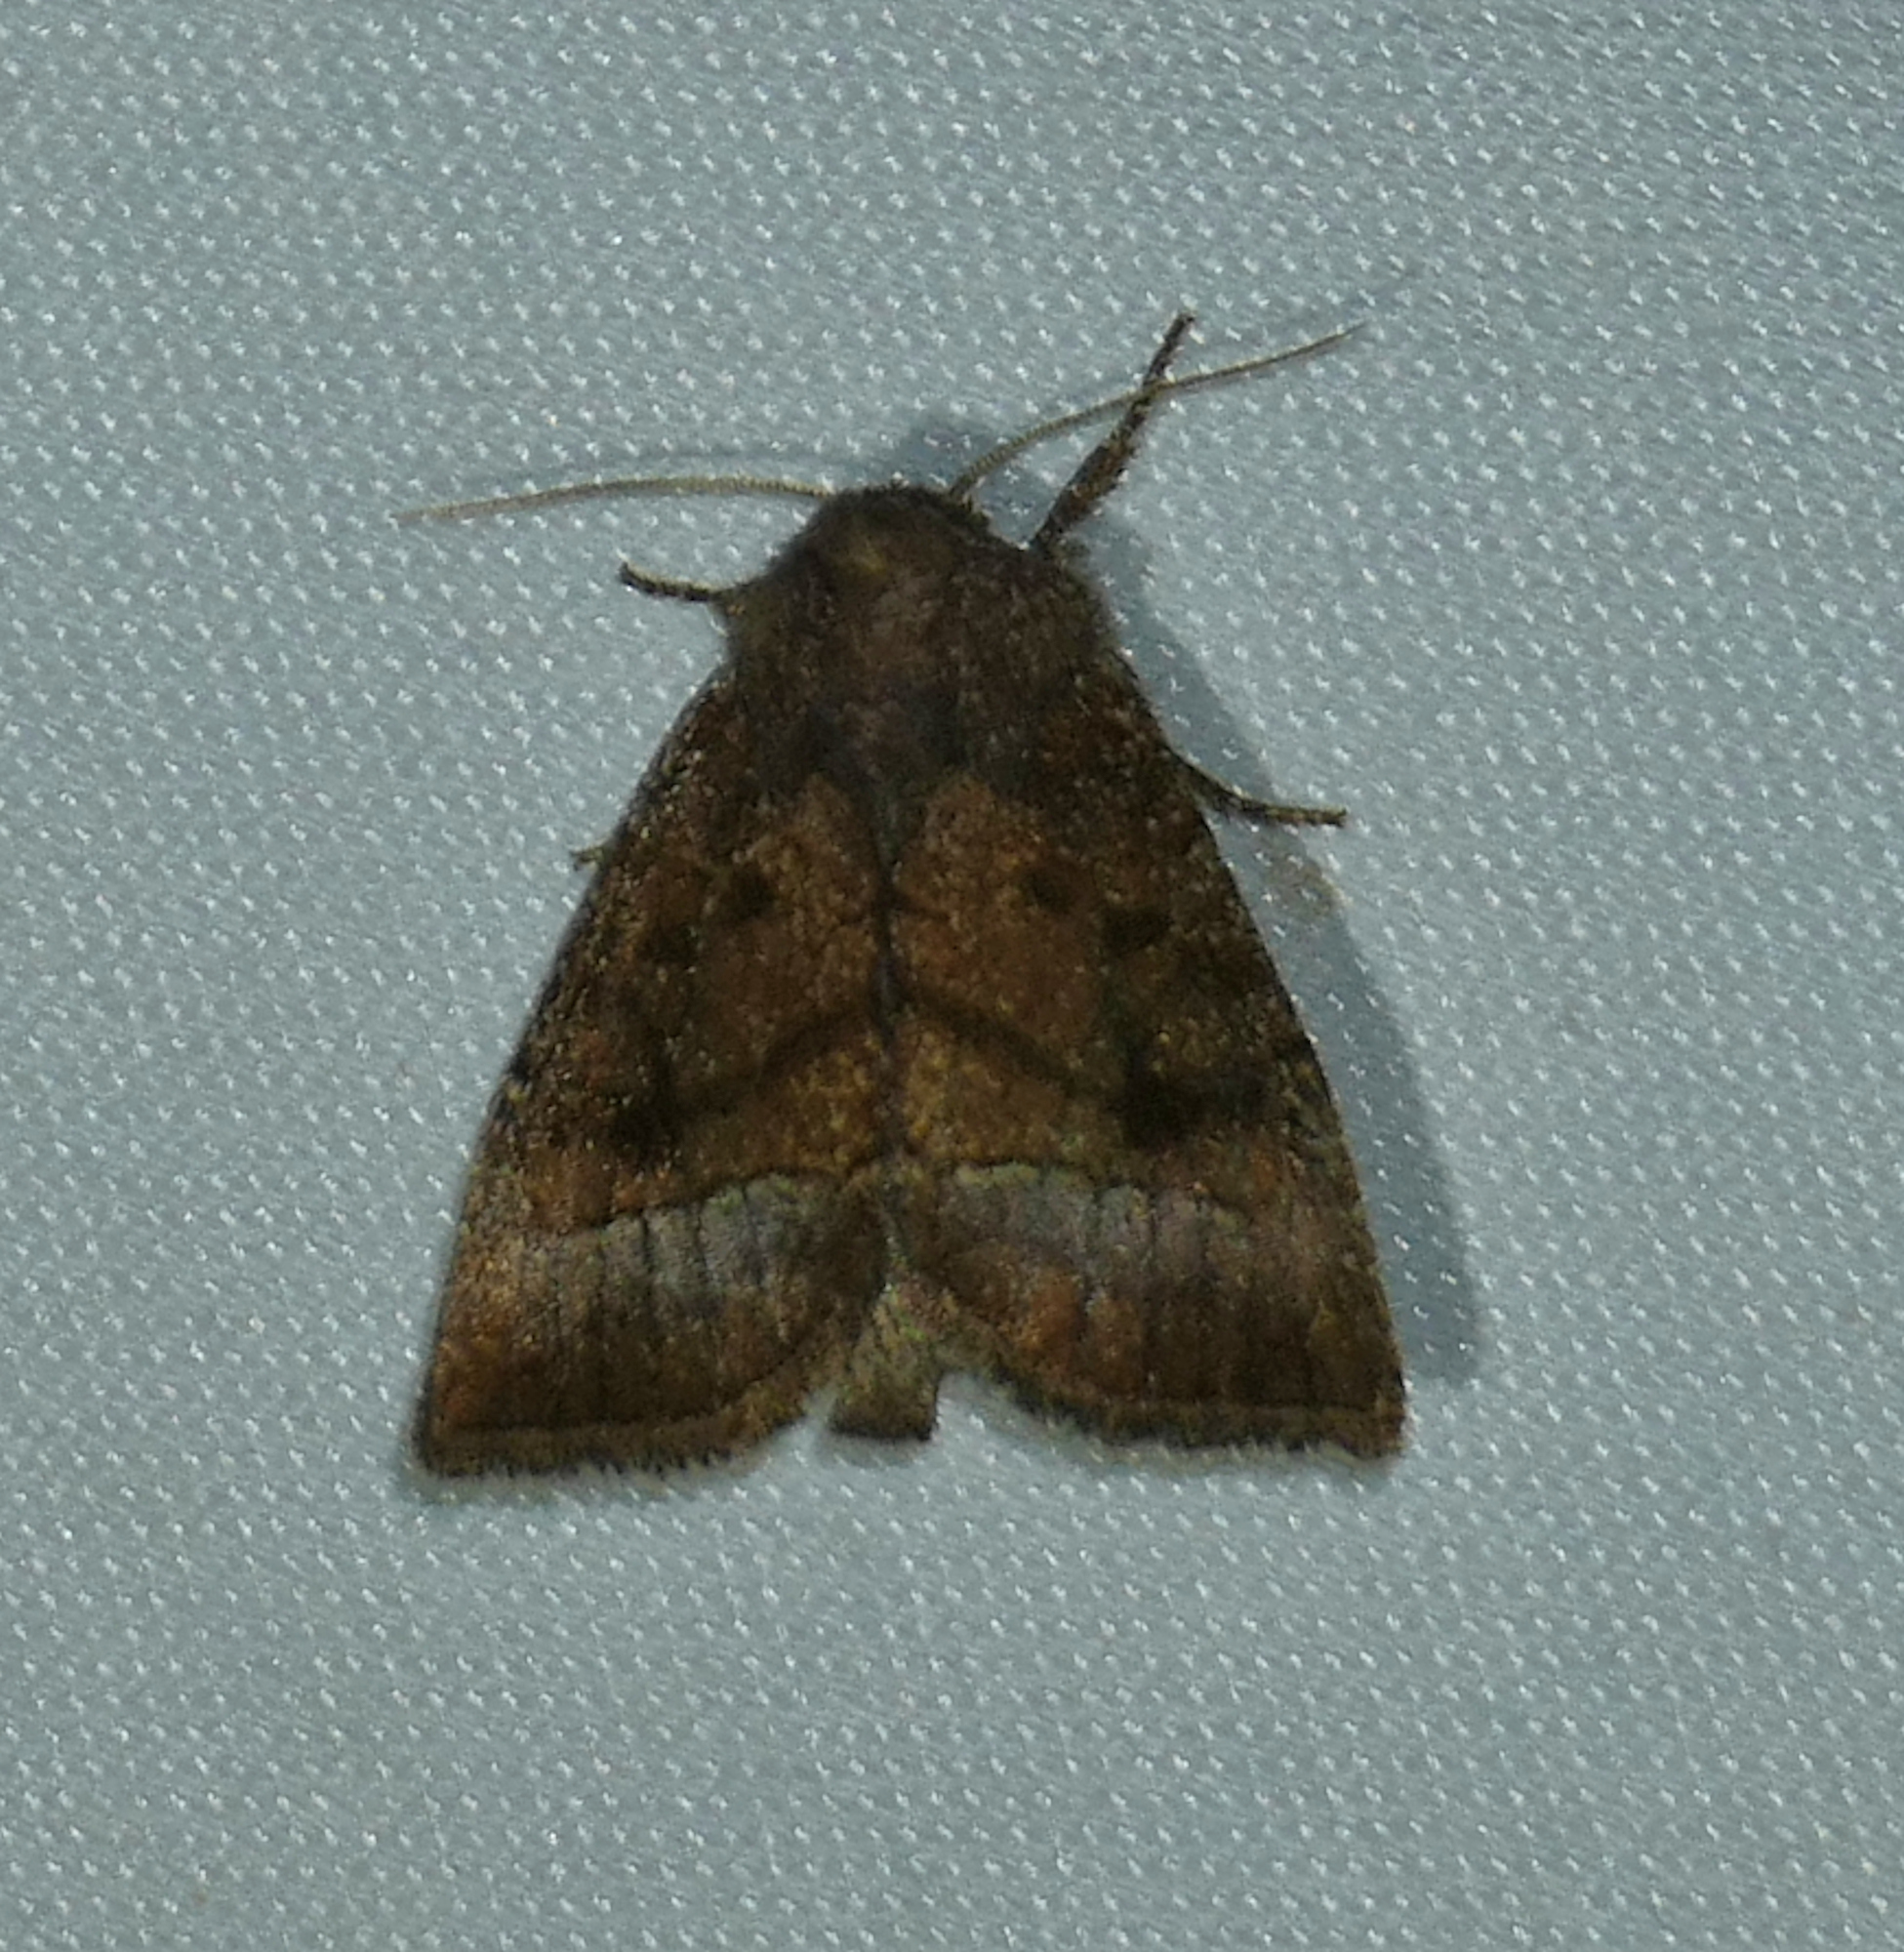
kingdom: Animalia
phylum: Arthropoda
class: Insecta
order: Lepidoptera
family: Noctuidae
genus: Papaipema
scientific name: Papaipema nelita
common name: Coneflower borer moth
